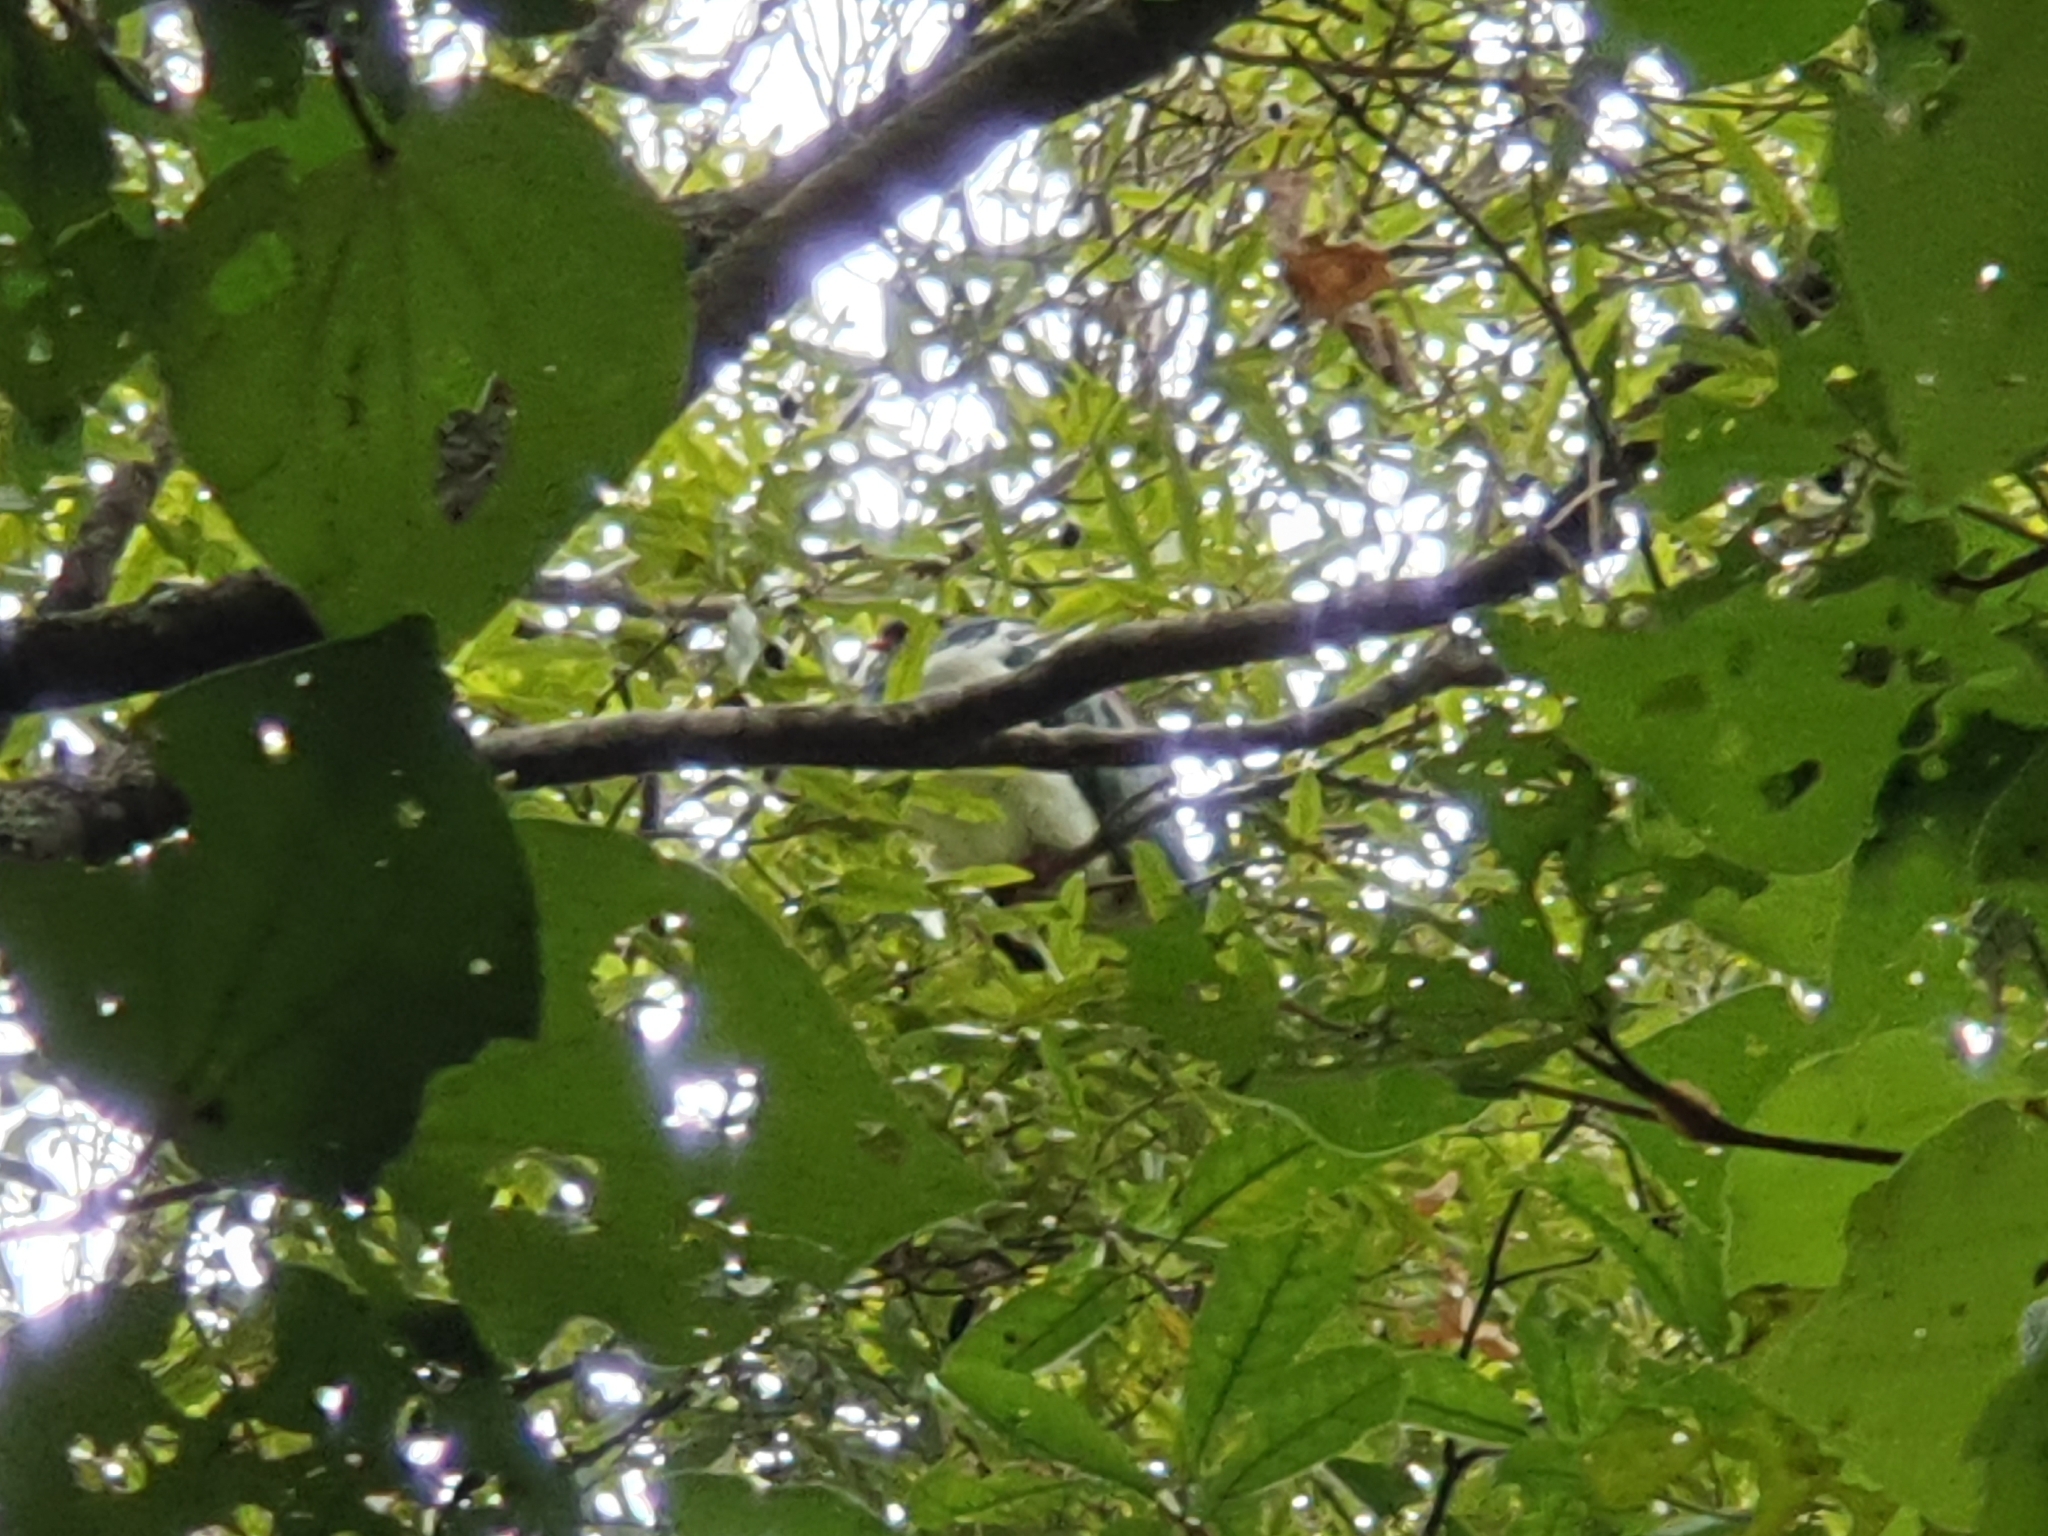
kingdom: Animalia
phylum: Chordata
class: Aves
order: Columbiformes
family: Columbidae
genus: Hemiphaga
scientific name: Hemiphaga novaeseelandiae
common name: New zealand pigeon
